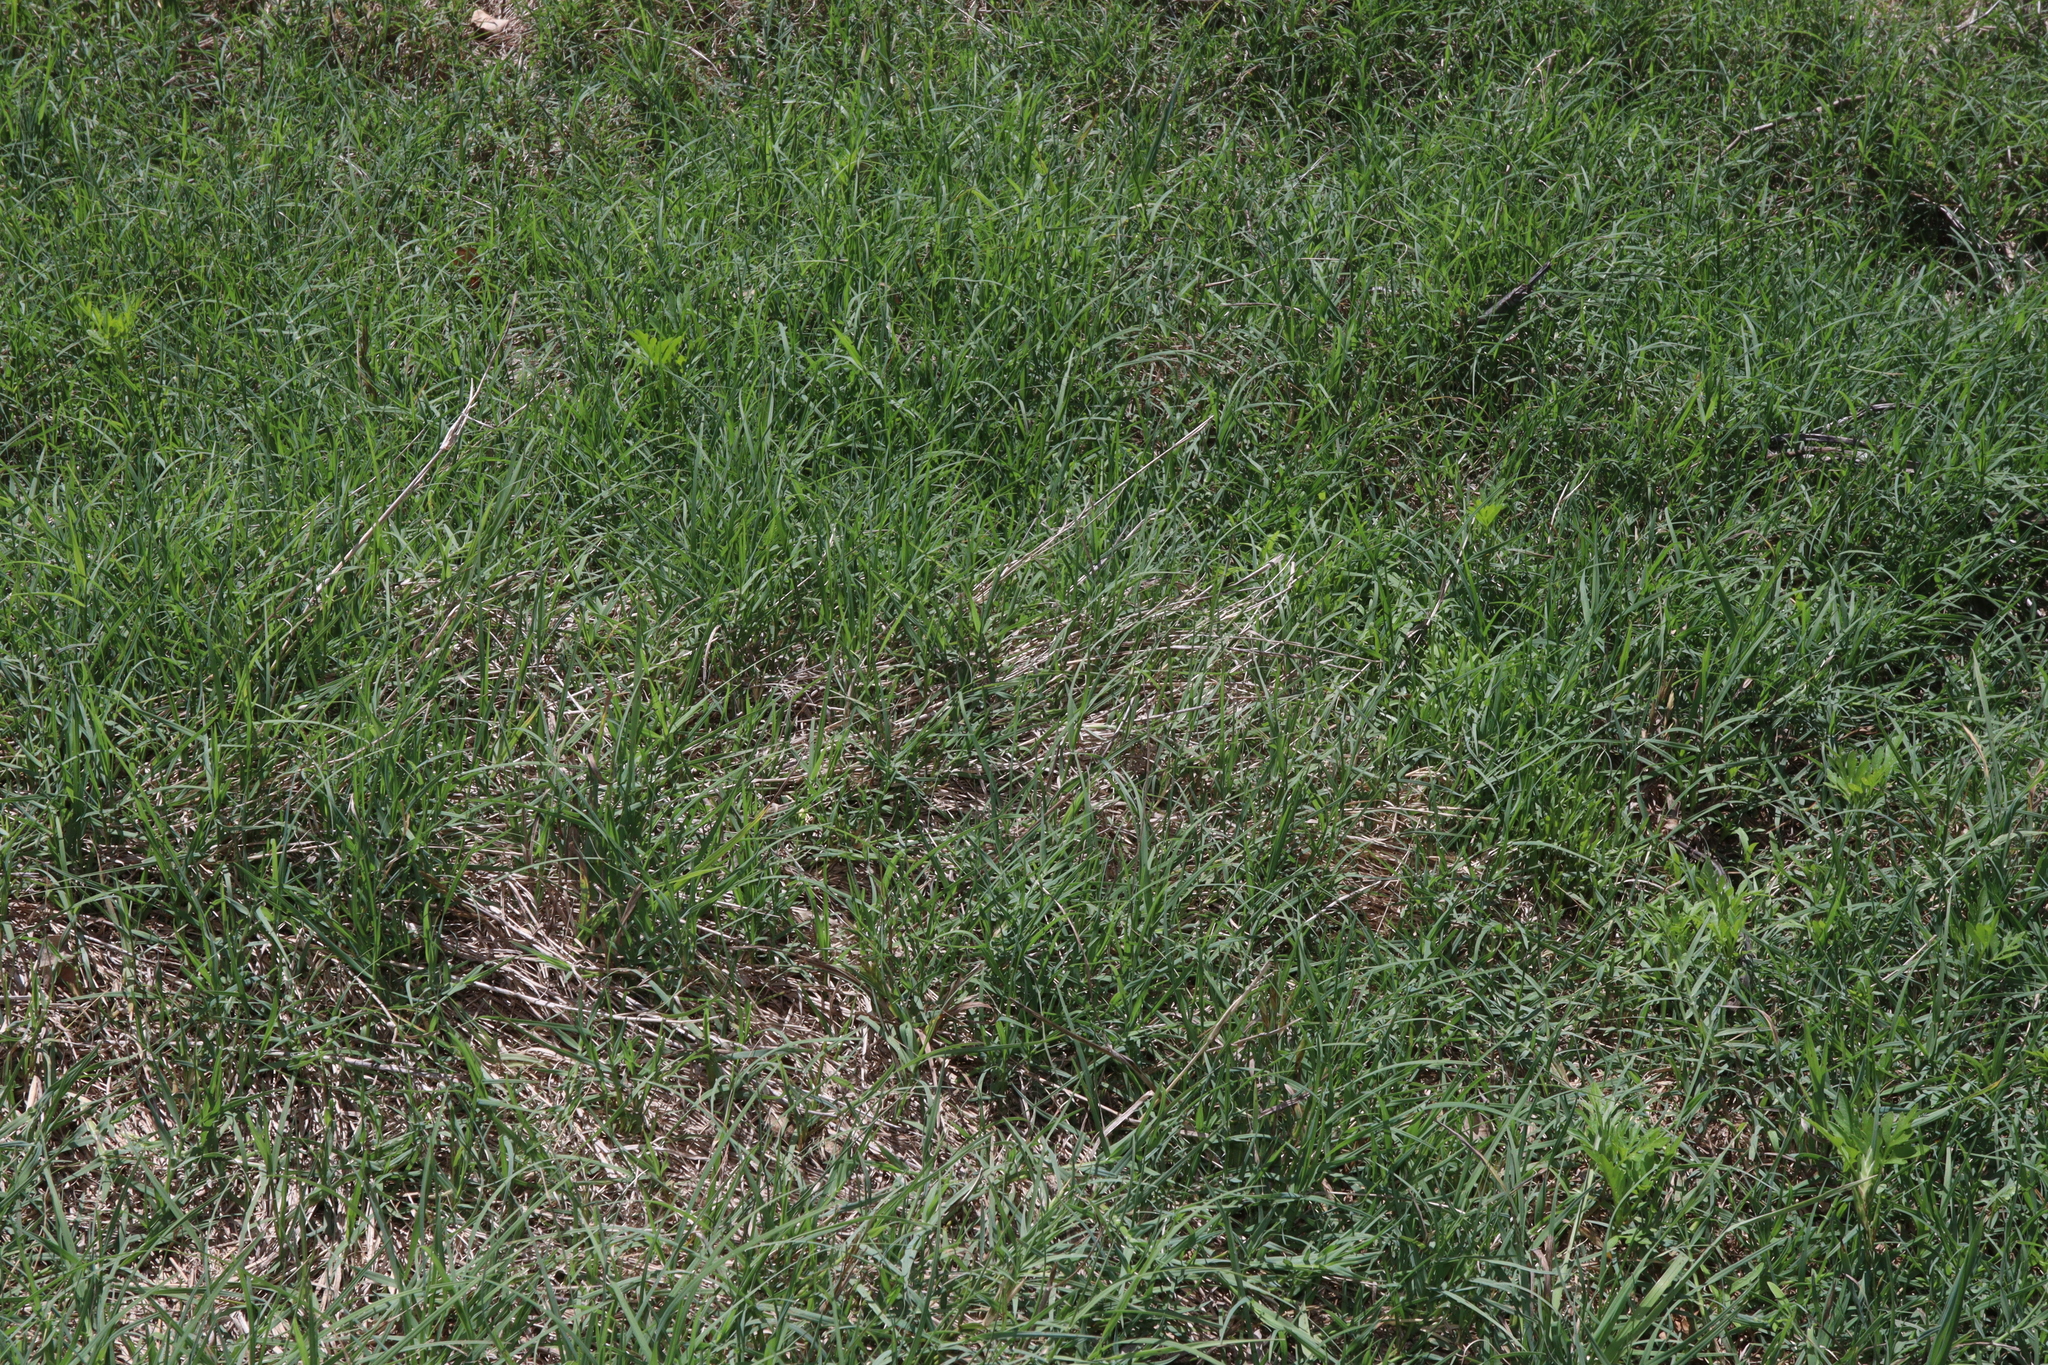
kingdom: Plantae
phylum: Tracheophyta
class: Liliopsida
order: Poales
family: Poaceae
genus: Cynodon
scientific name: Cynodon dactylon
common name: Bermuda grass
